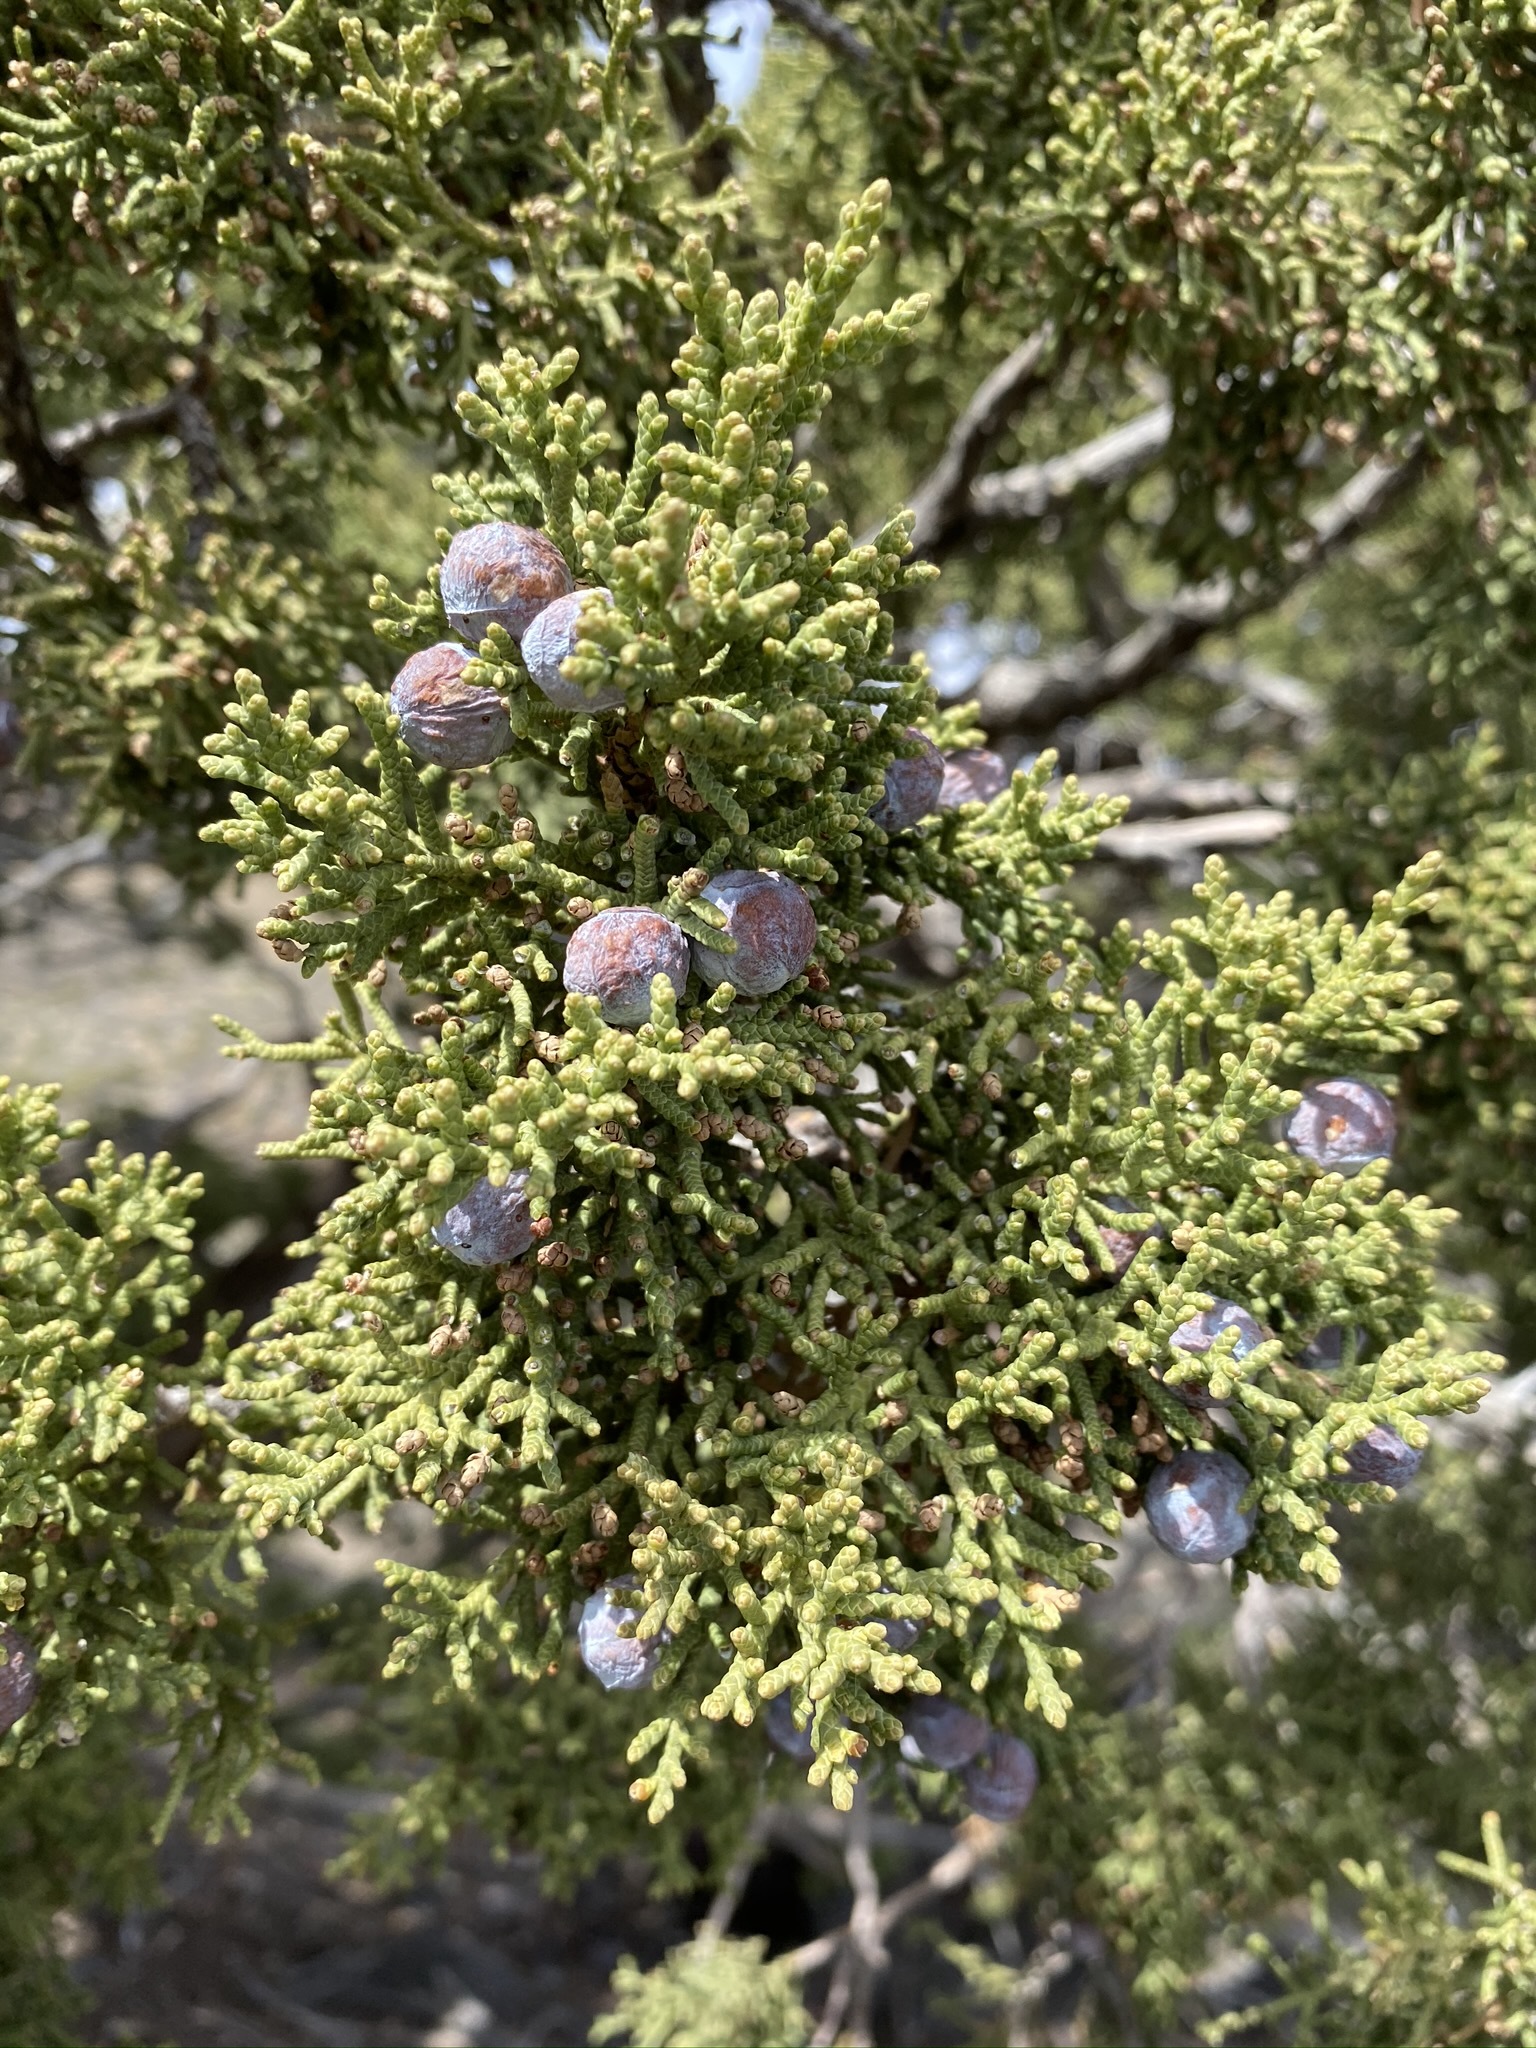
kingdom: Plantae
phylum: Tracheophyta
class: Pinopsida
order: Pinales
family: Cupressaceae
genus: Juniperus
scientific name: Juniperus osteosperma
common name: Utah juniper
